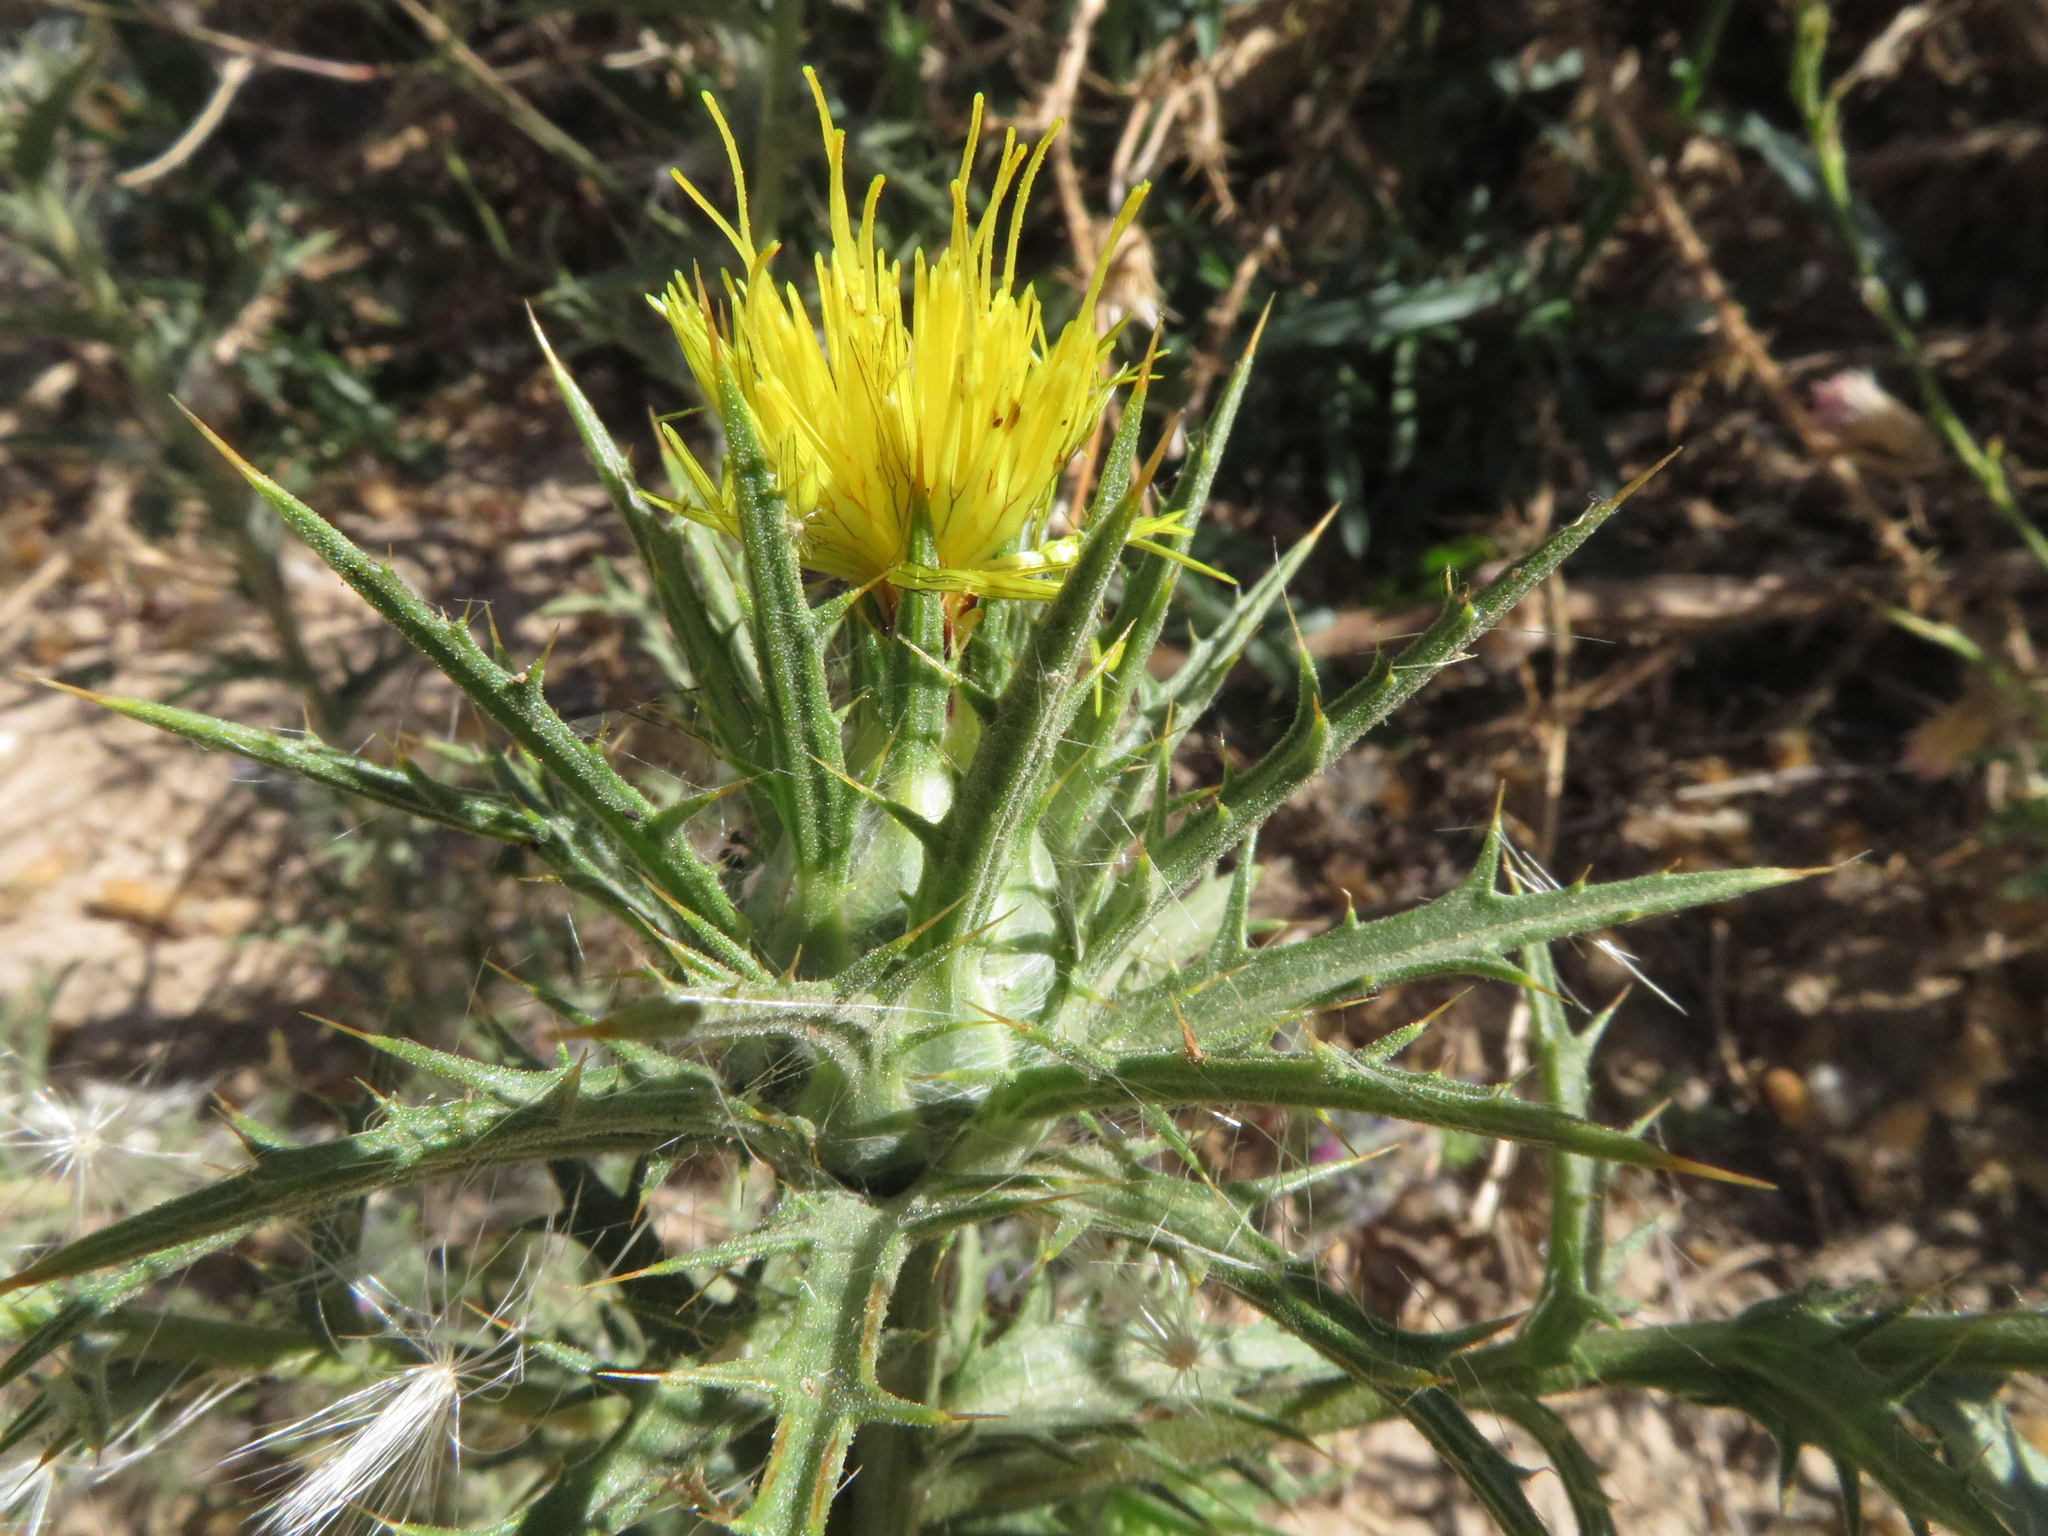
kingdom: Plantae
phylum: Tracheophyta
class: Magnoliopsida
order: Asterales
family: Asteraceae
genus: Carthamus
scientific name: Carthamus lanatus
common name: Downy safflower
